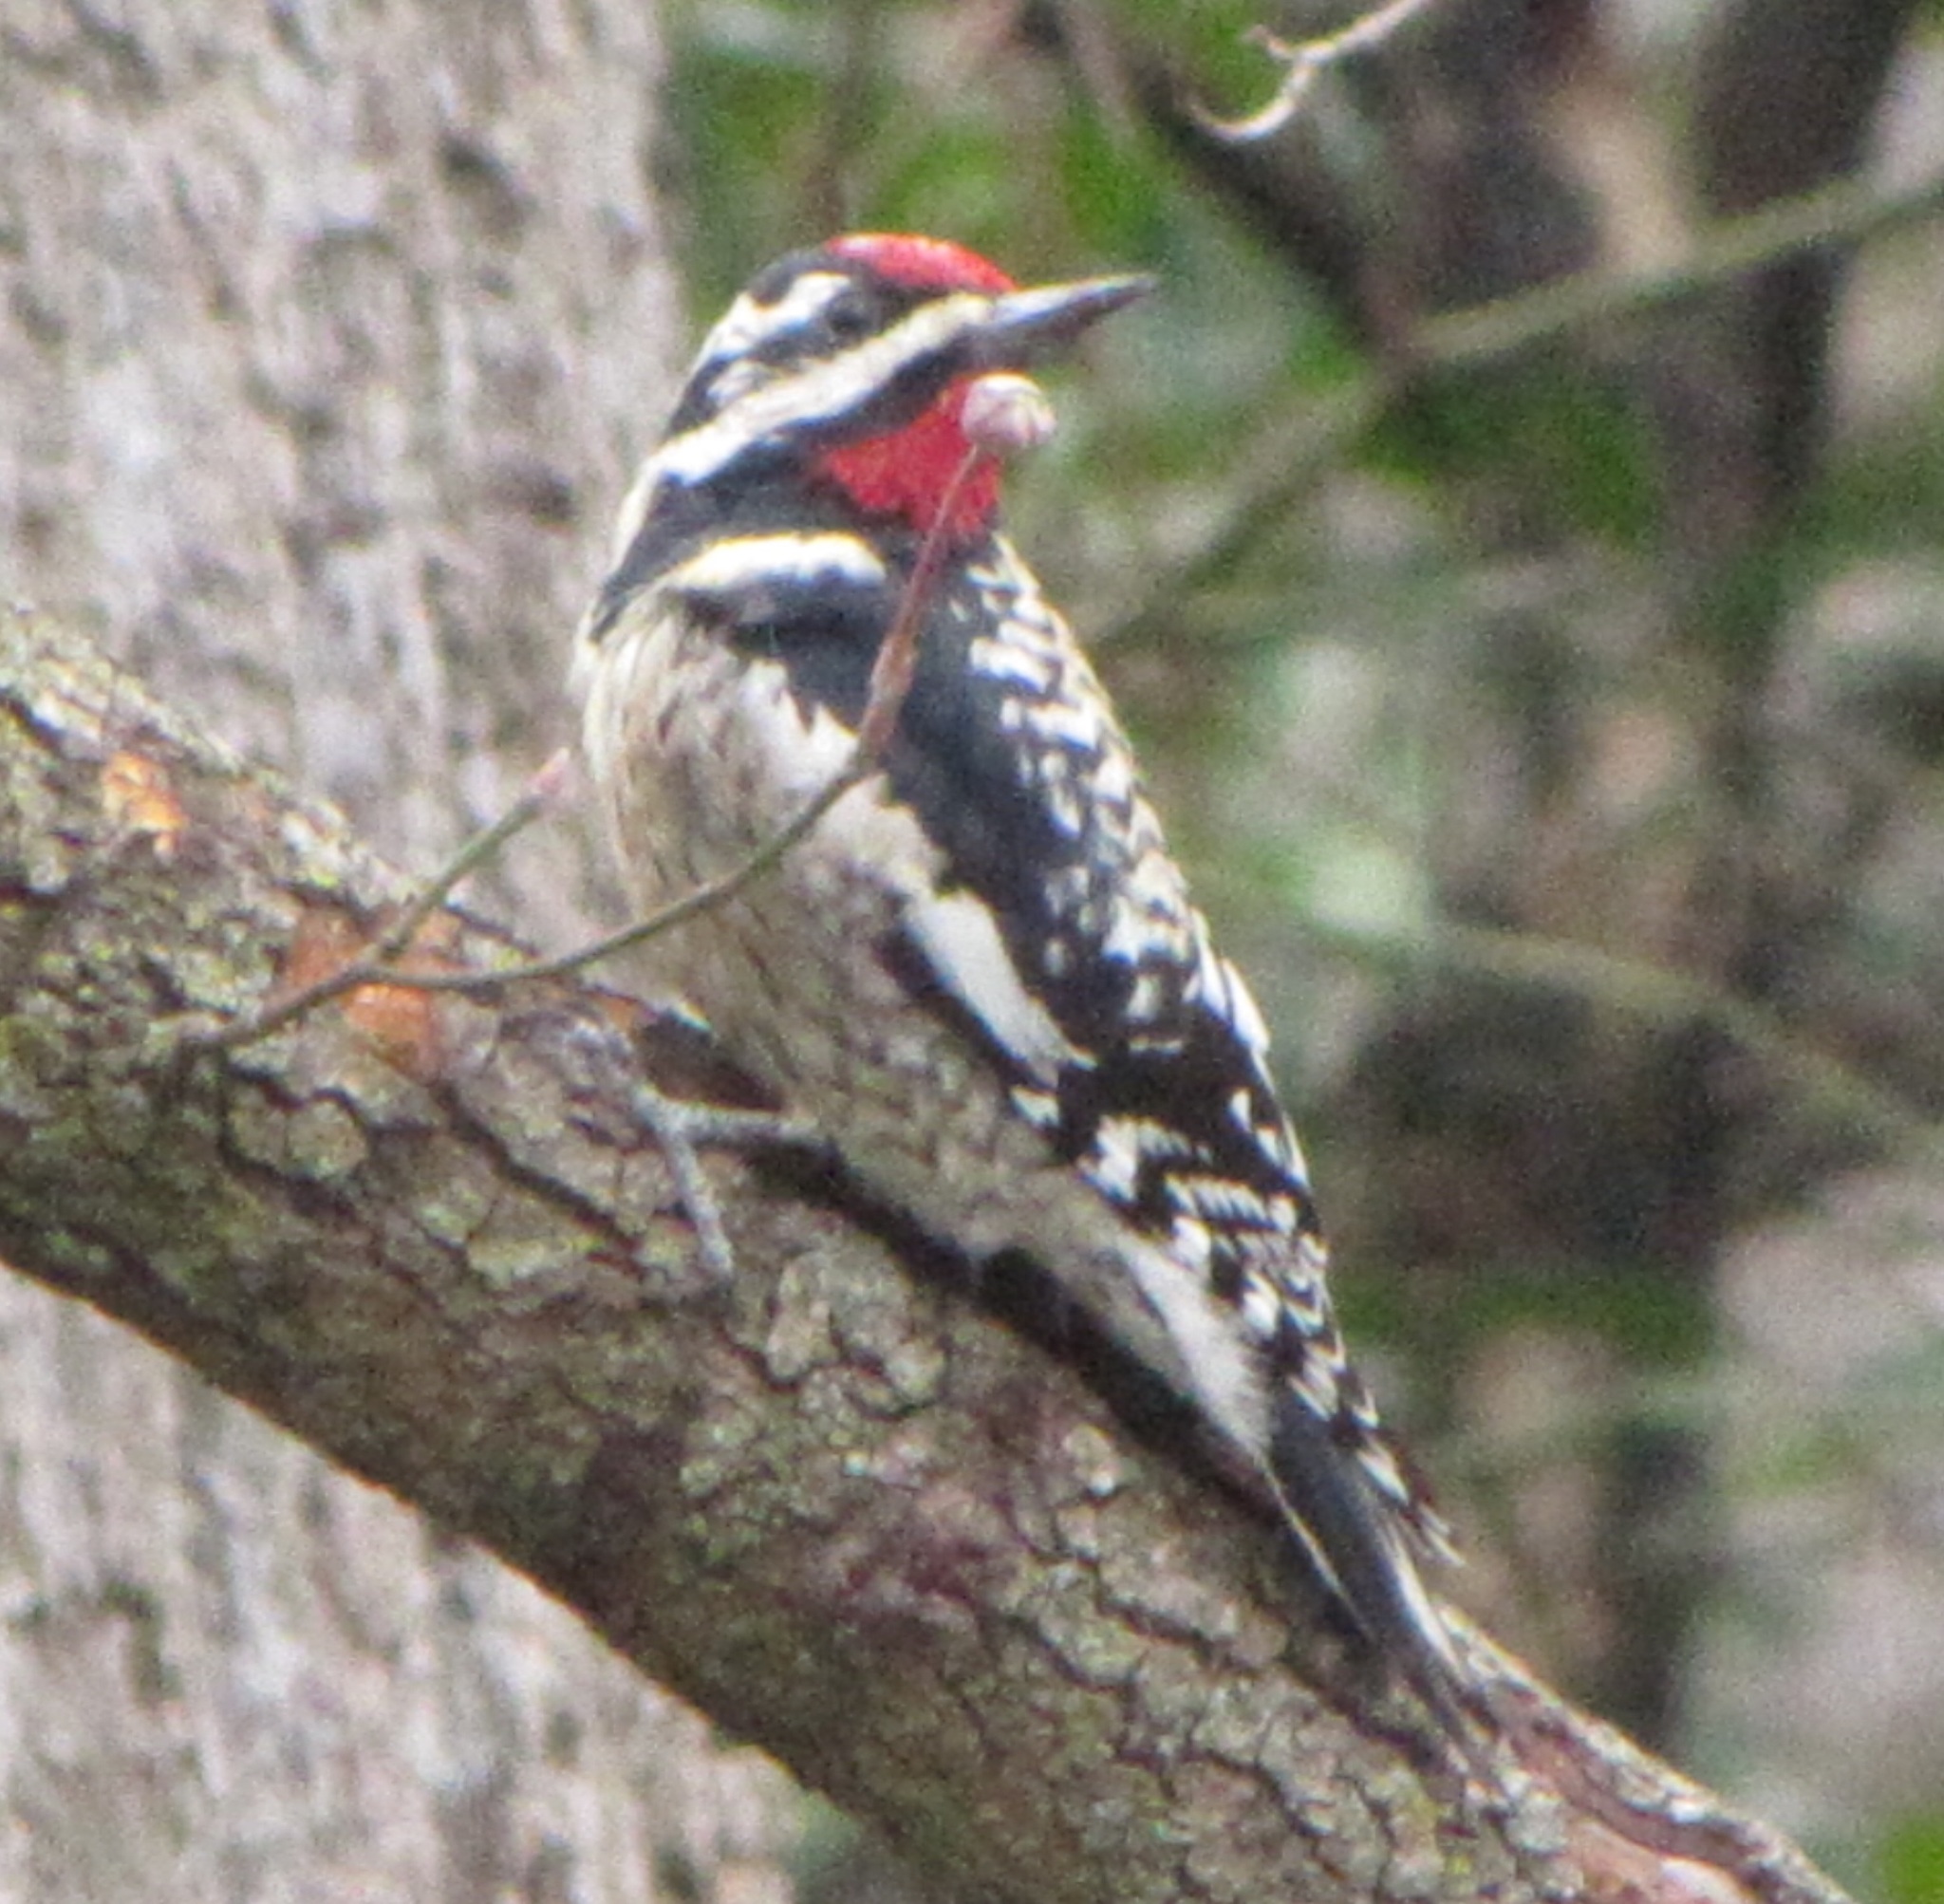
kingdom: Animalia
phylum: Chordata
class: Aves
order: Piciformes
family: Picidae
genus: Sphyrapicus
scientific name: Sphyrapicus varius
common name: Yellow-bellied sapsucker
